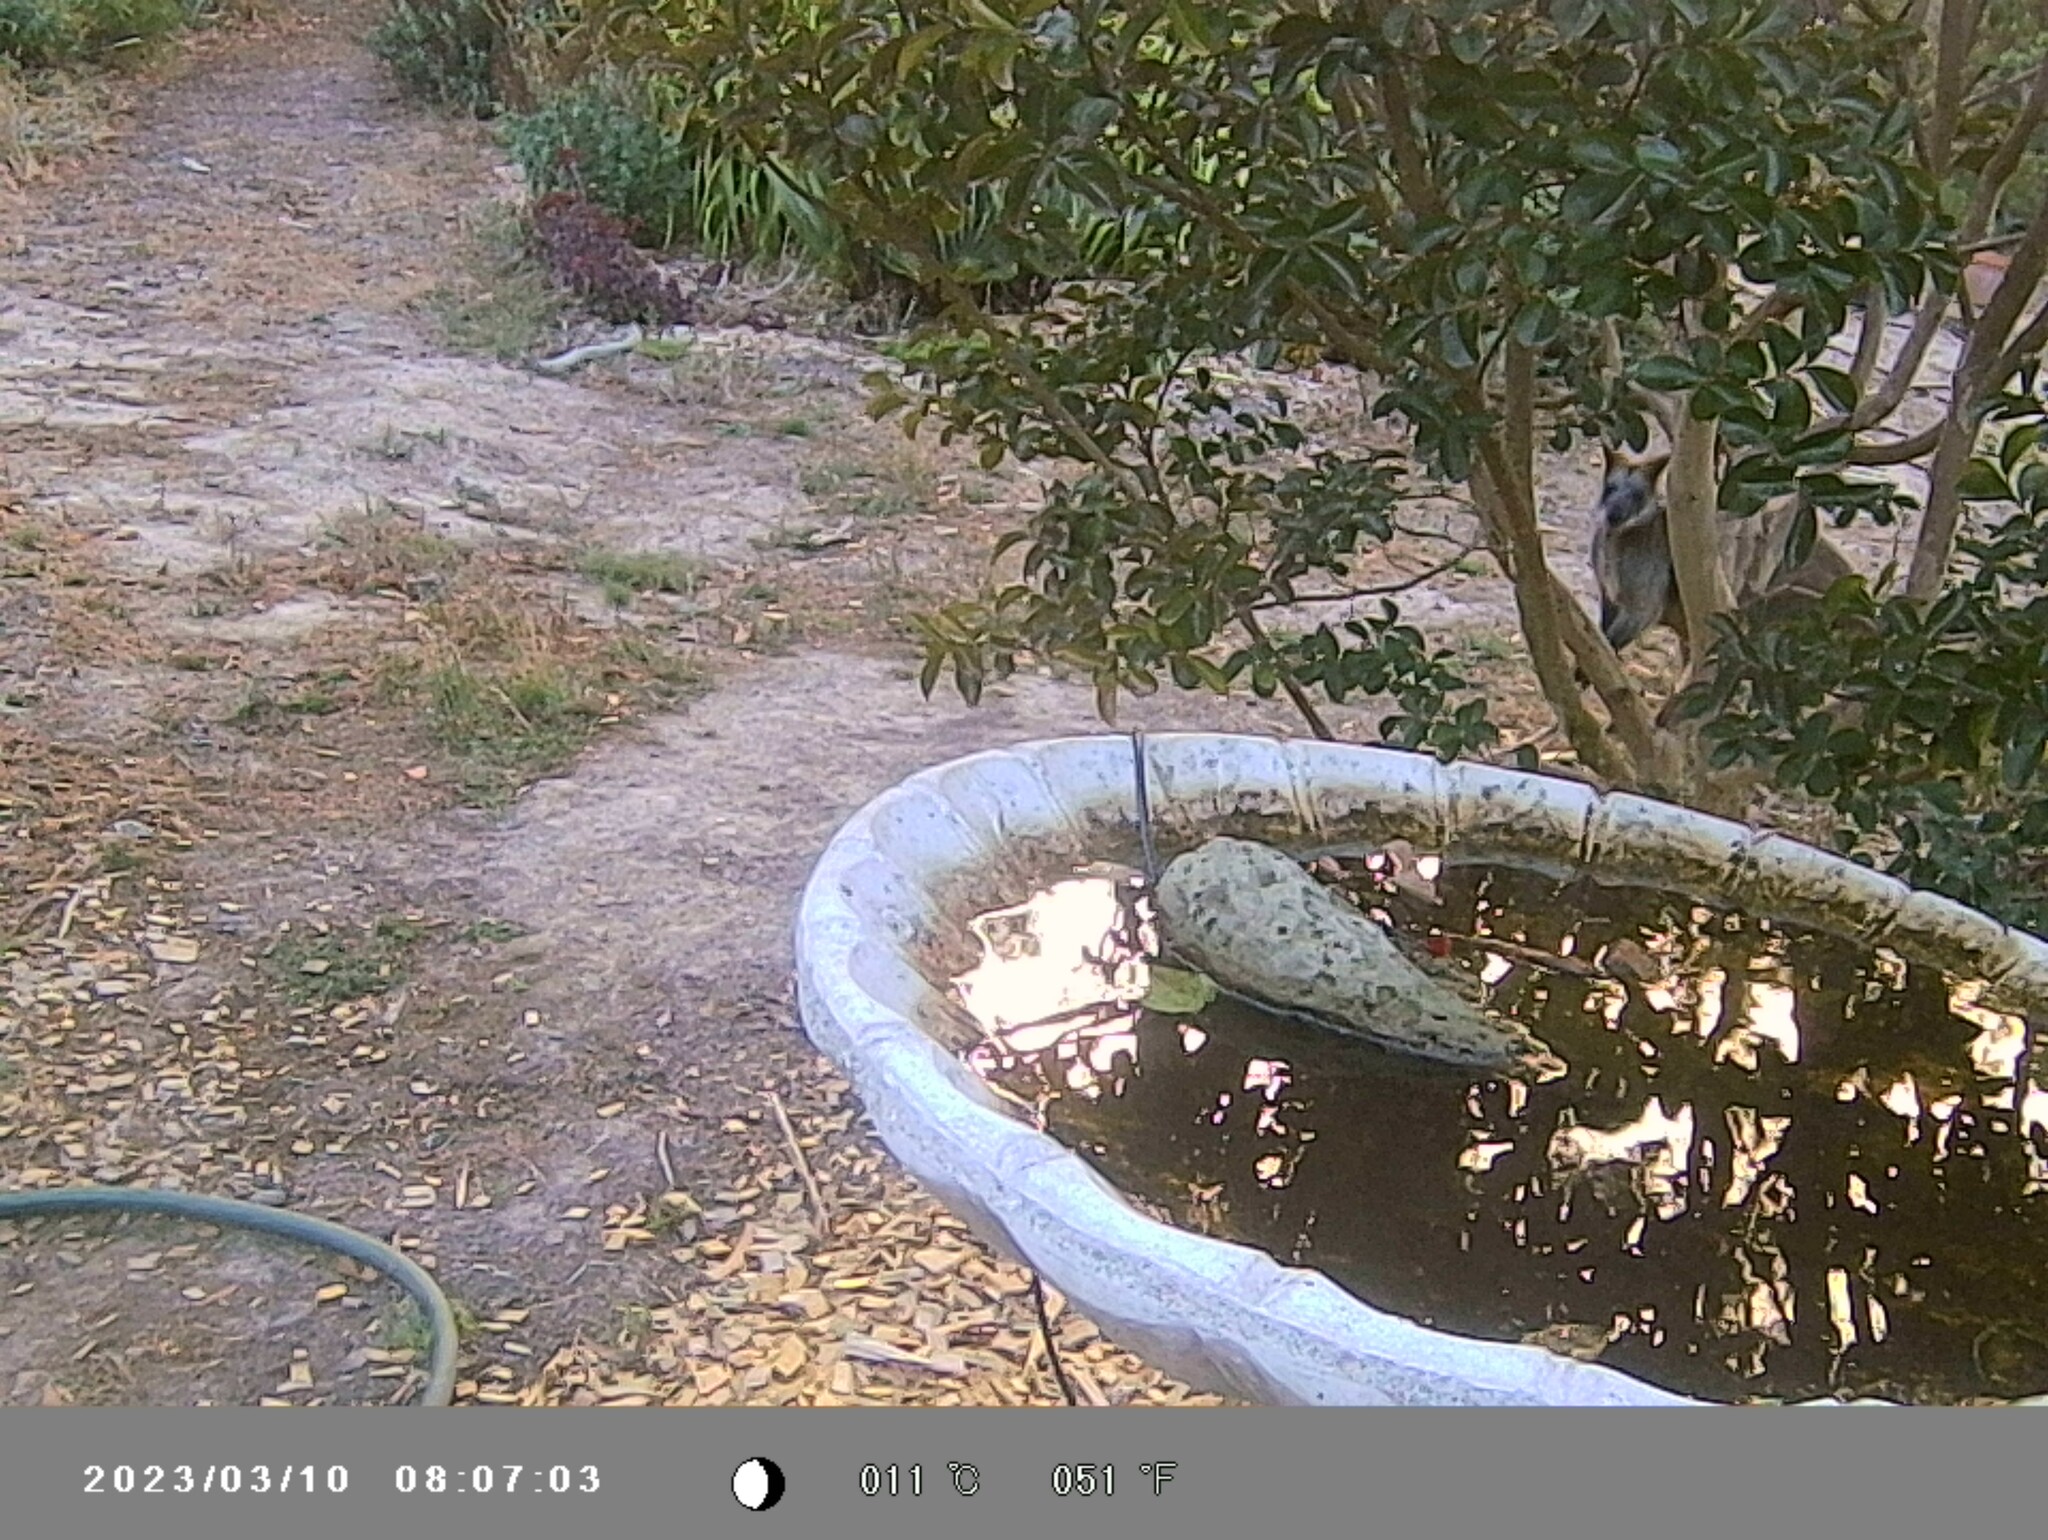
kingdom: Animalia
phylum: Chordata
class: Mammalia
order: Diprotodontia
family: Macropodidae
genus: Wallabia
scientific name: Wallabia bicolor
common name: Swamp wallaby
